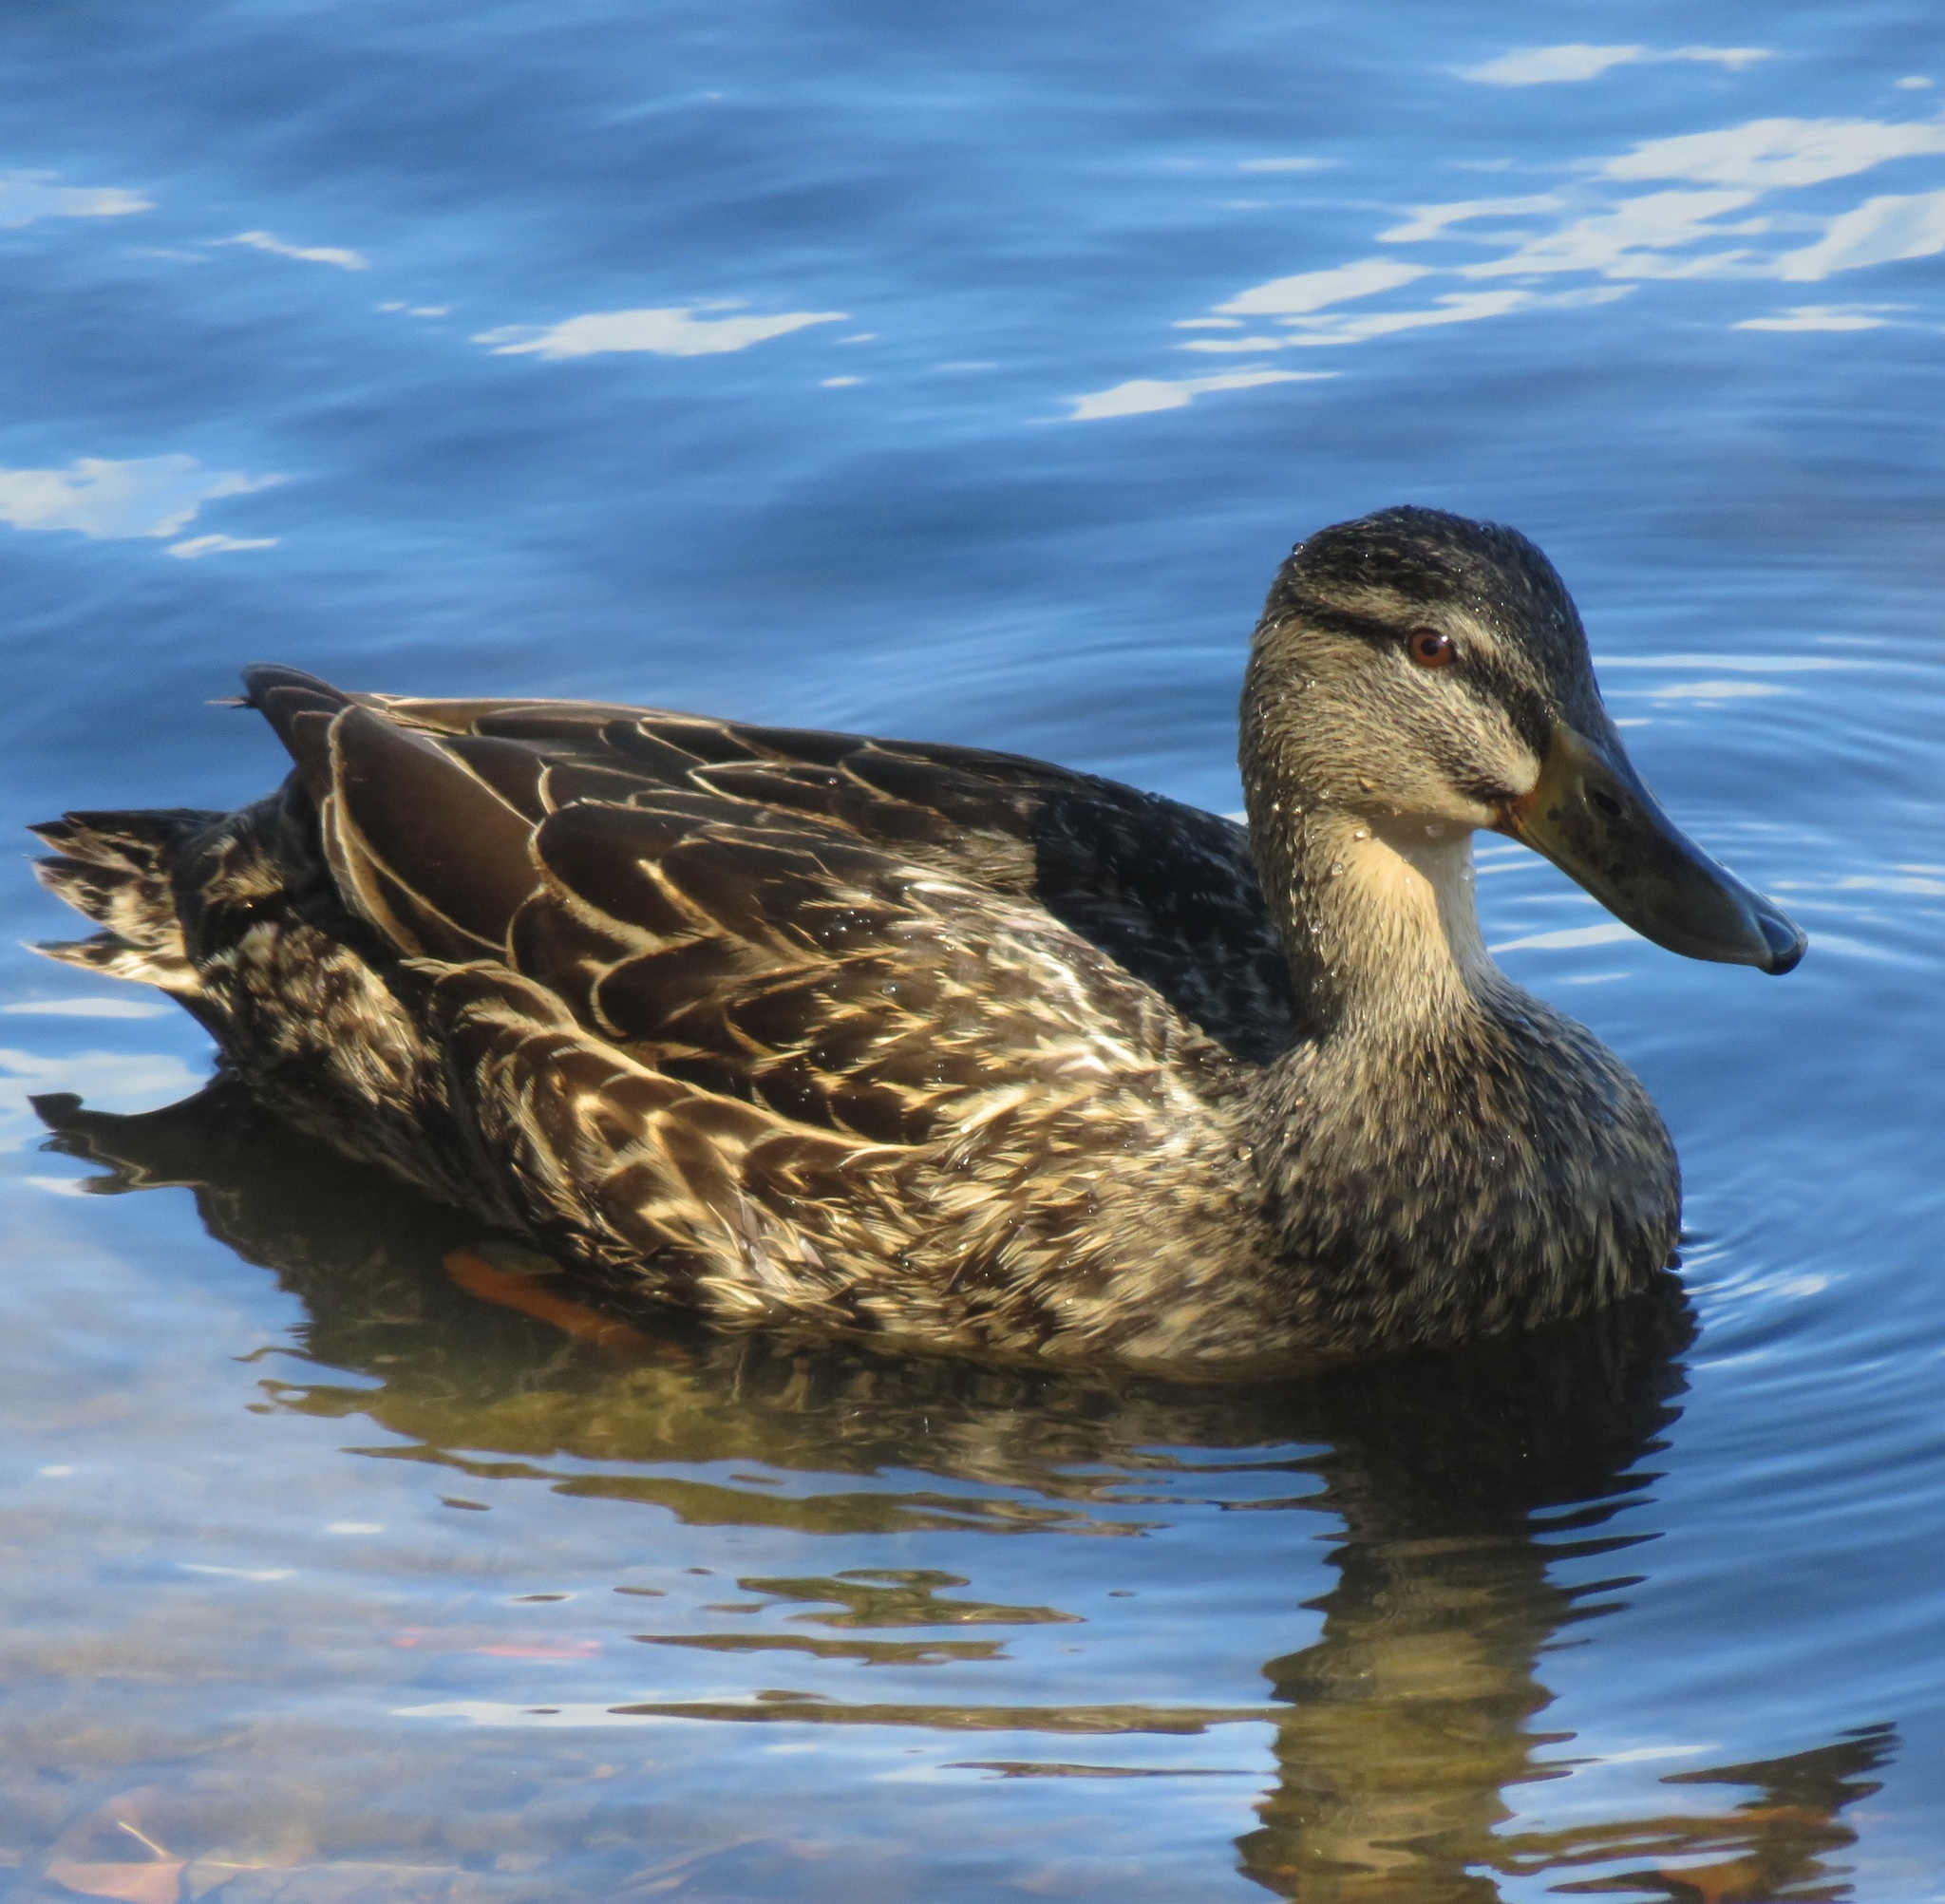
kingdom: Animalia
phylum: Chordata
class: Aves
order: Anseriformes
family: Anatidae
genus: Anas
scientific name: Anas
